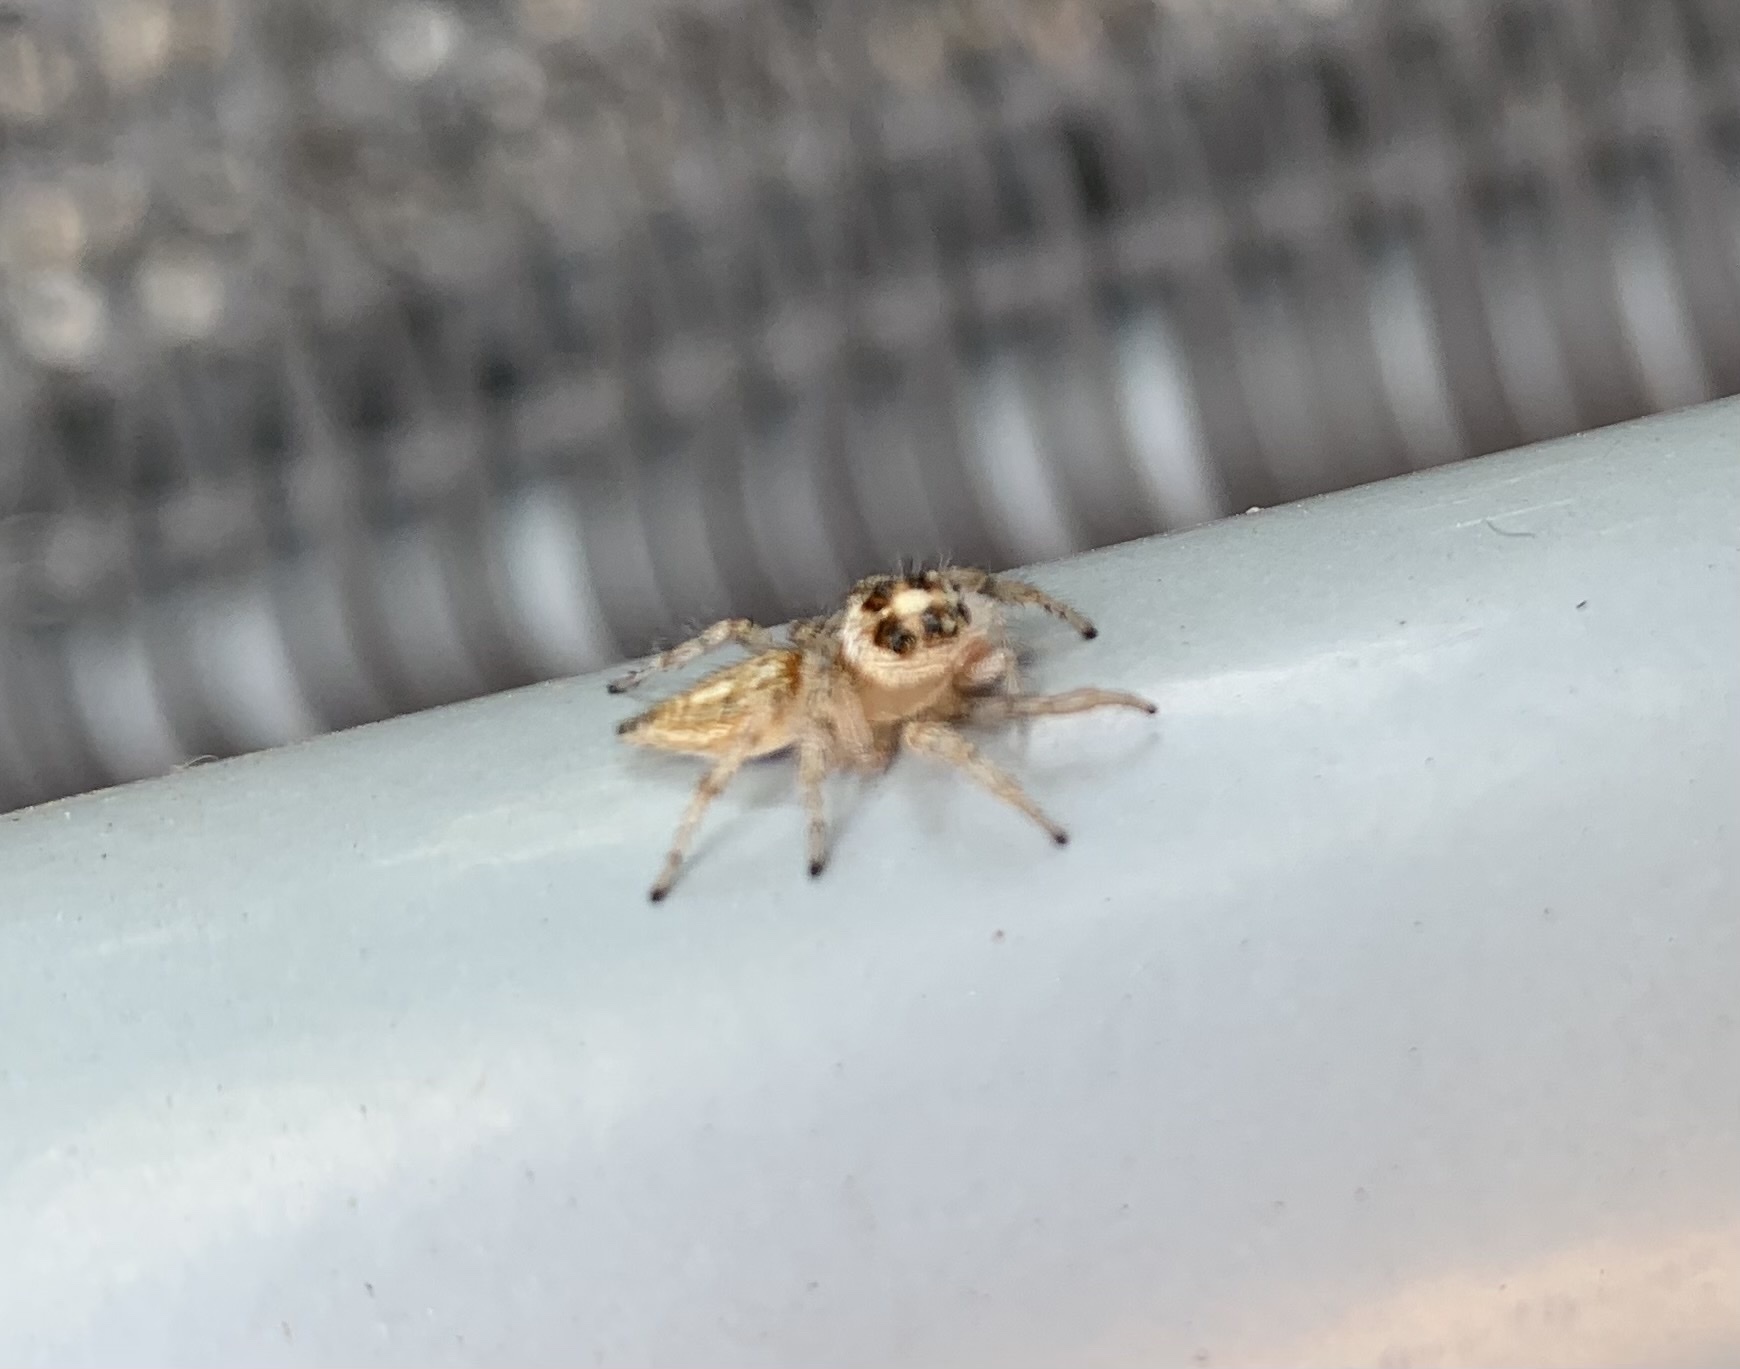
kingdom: Animalia
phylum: Arthropoda
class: Arachnida
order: Araneae
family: Salticidae
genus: Colonus
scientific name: Colonus hesperus
